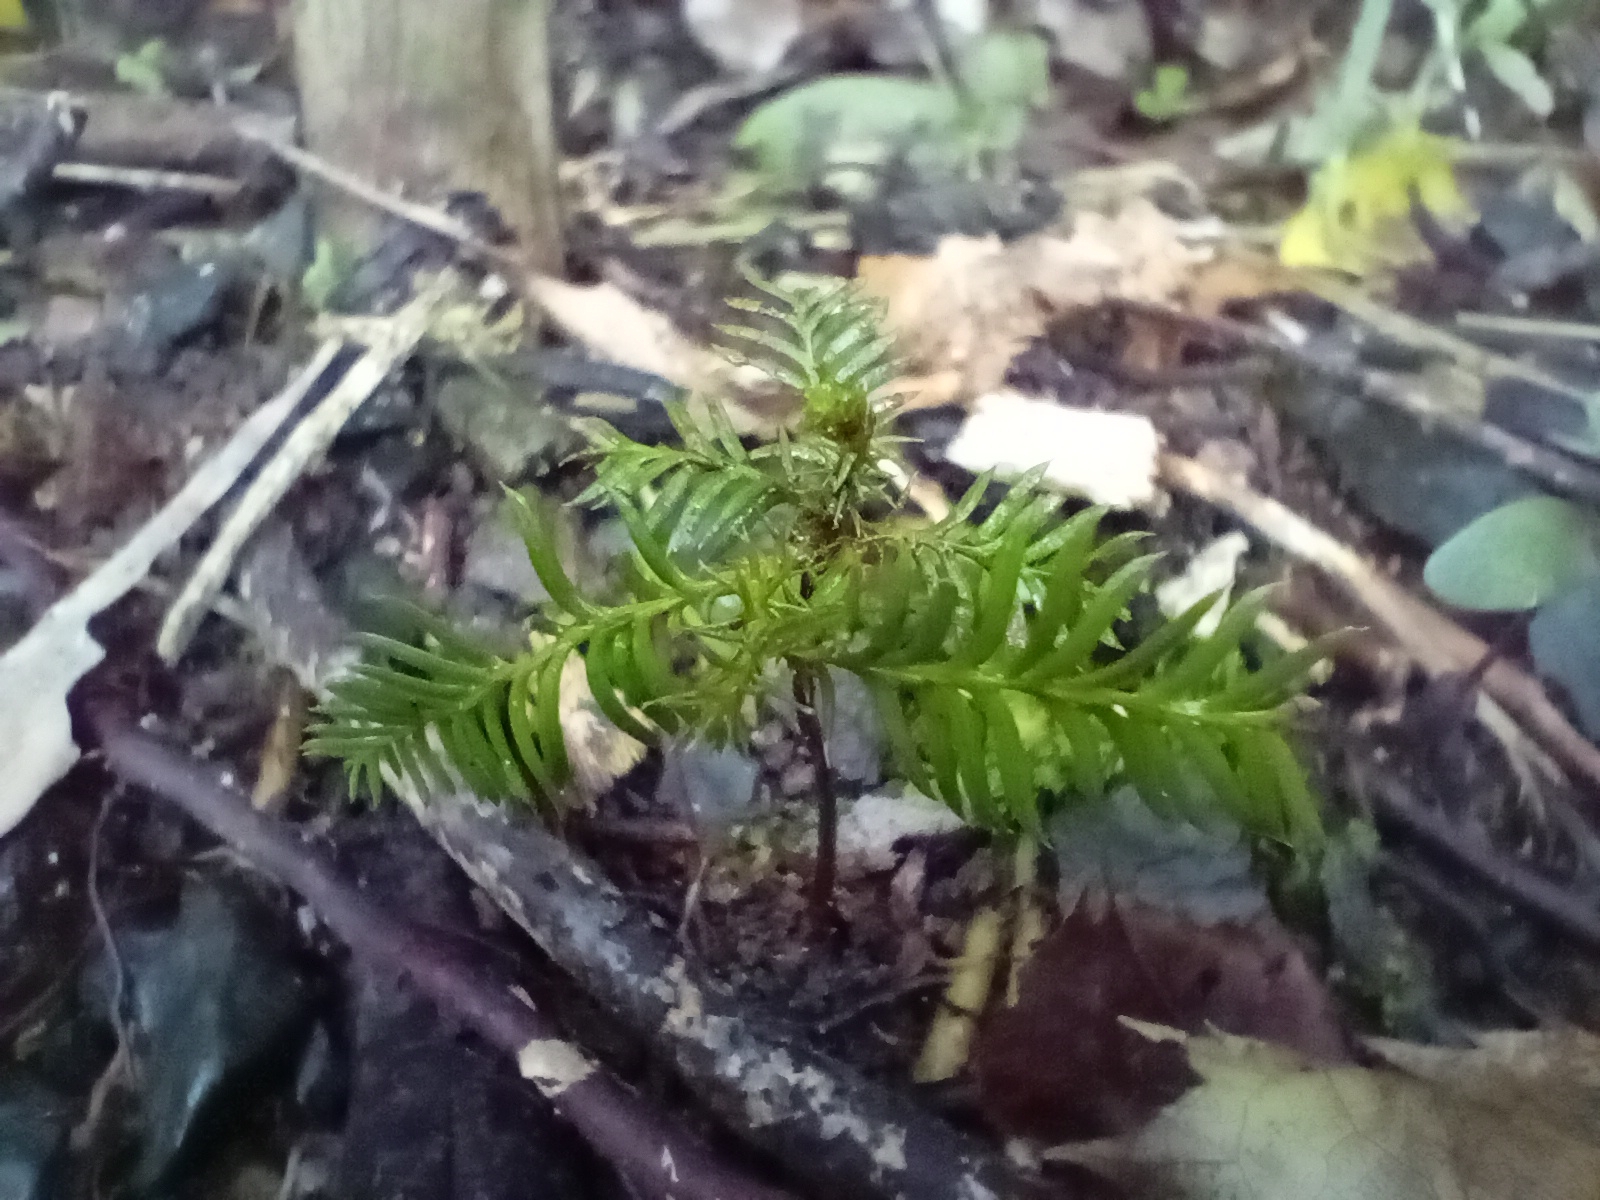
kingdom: Plantae
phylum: Tracheophyta
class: Pinopsida
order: Pinales
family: Podocarpaceae
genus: Dacrycarpus
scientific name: Dacrycarpus dacrydioides
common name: White pine
